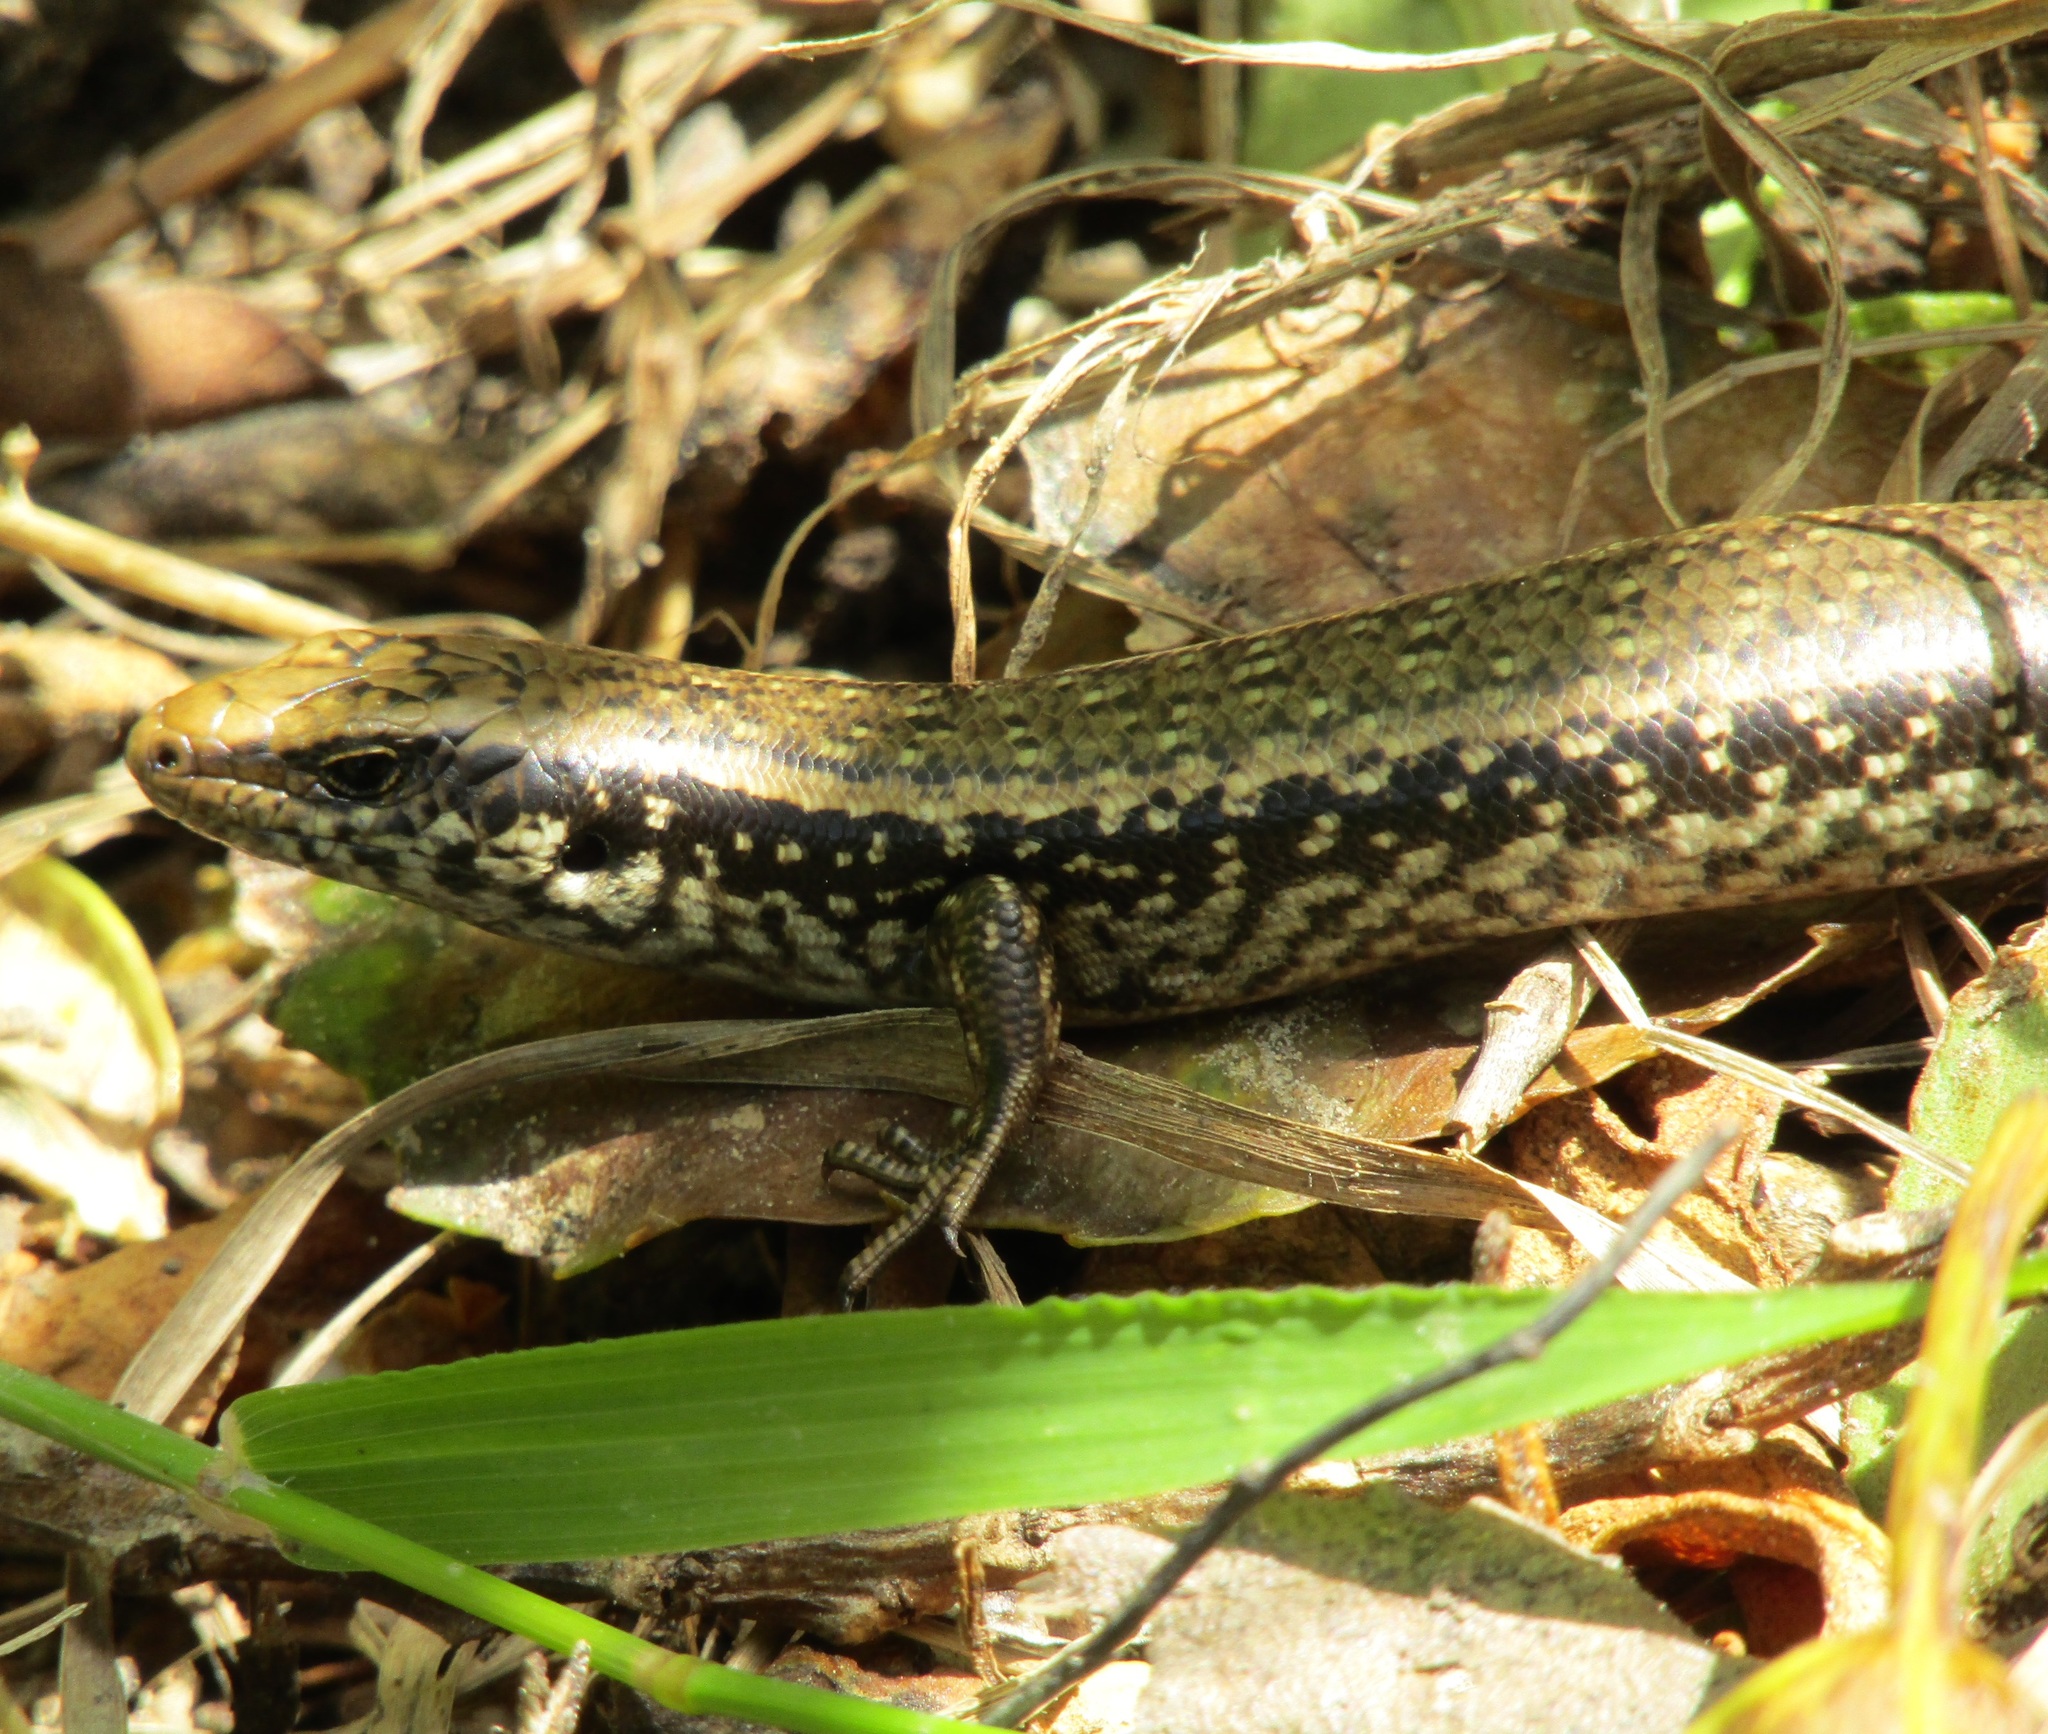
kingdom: Animalia
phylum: Chordata
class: Squamata
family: Scincidae
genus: Oligosoma
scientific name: Oligosoma kokowai
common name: Northern spotted skink
